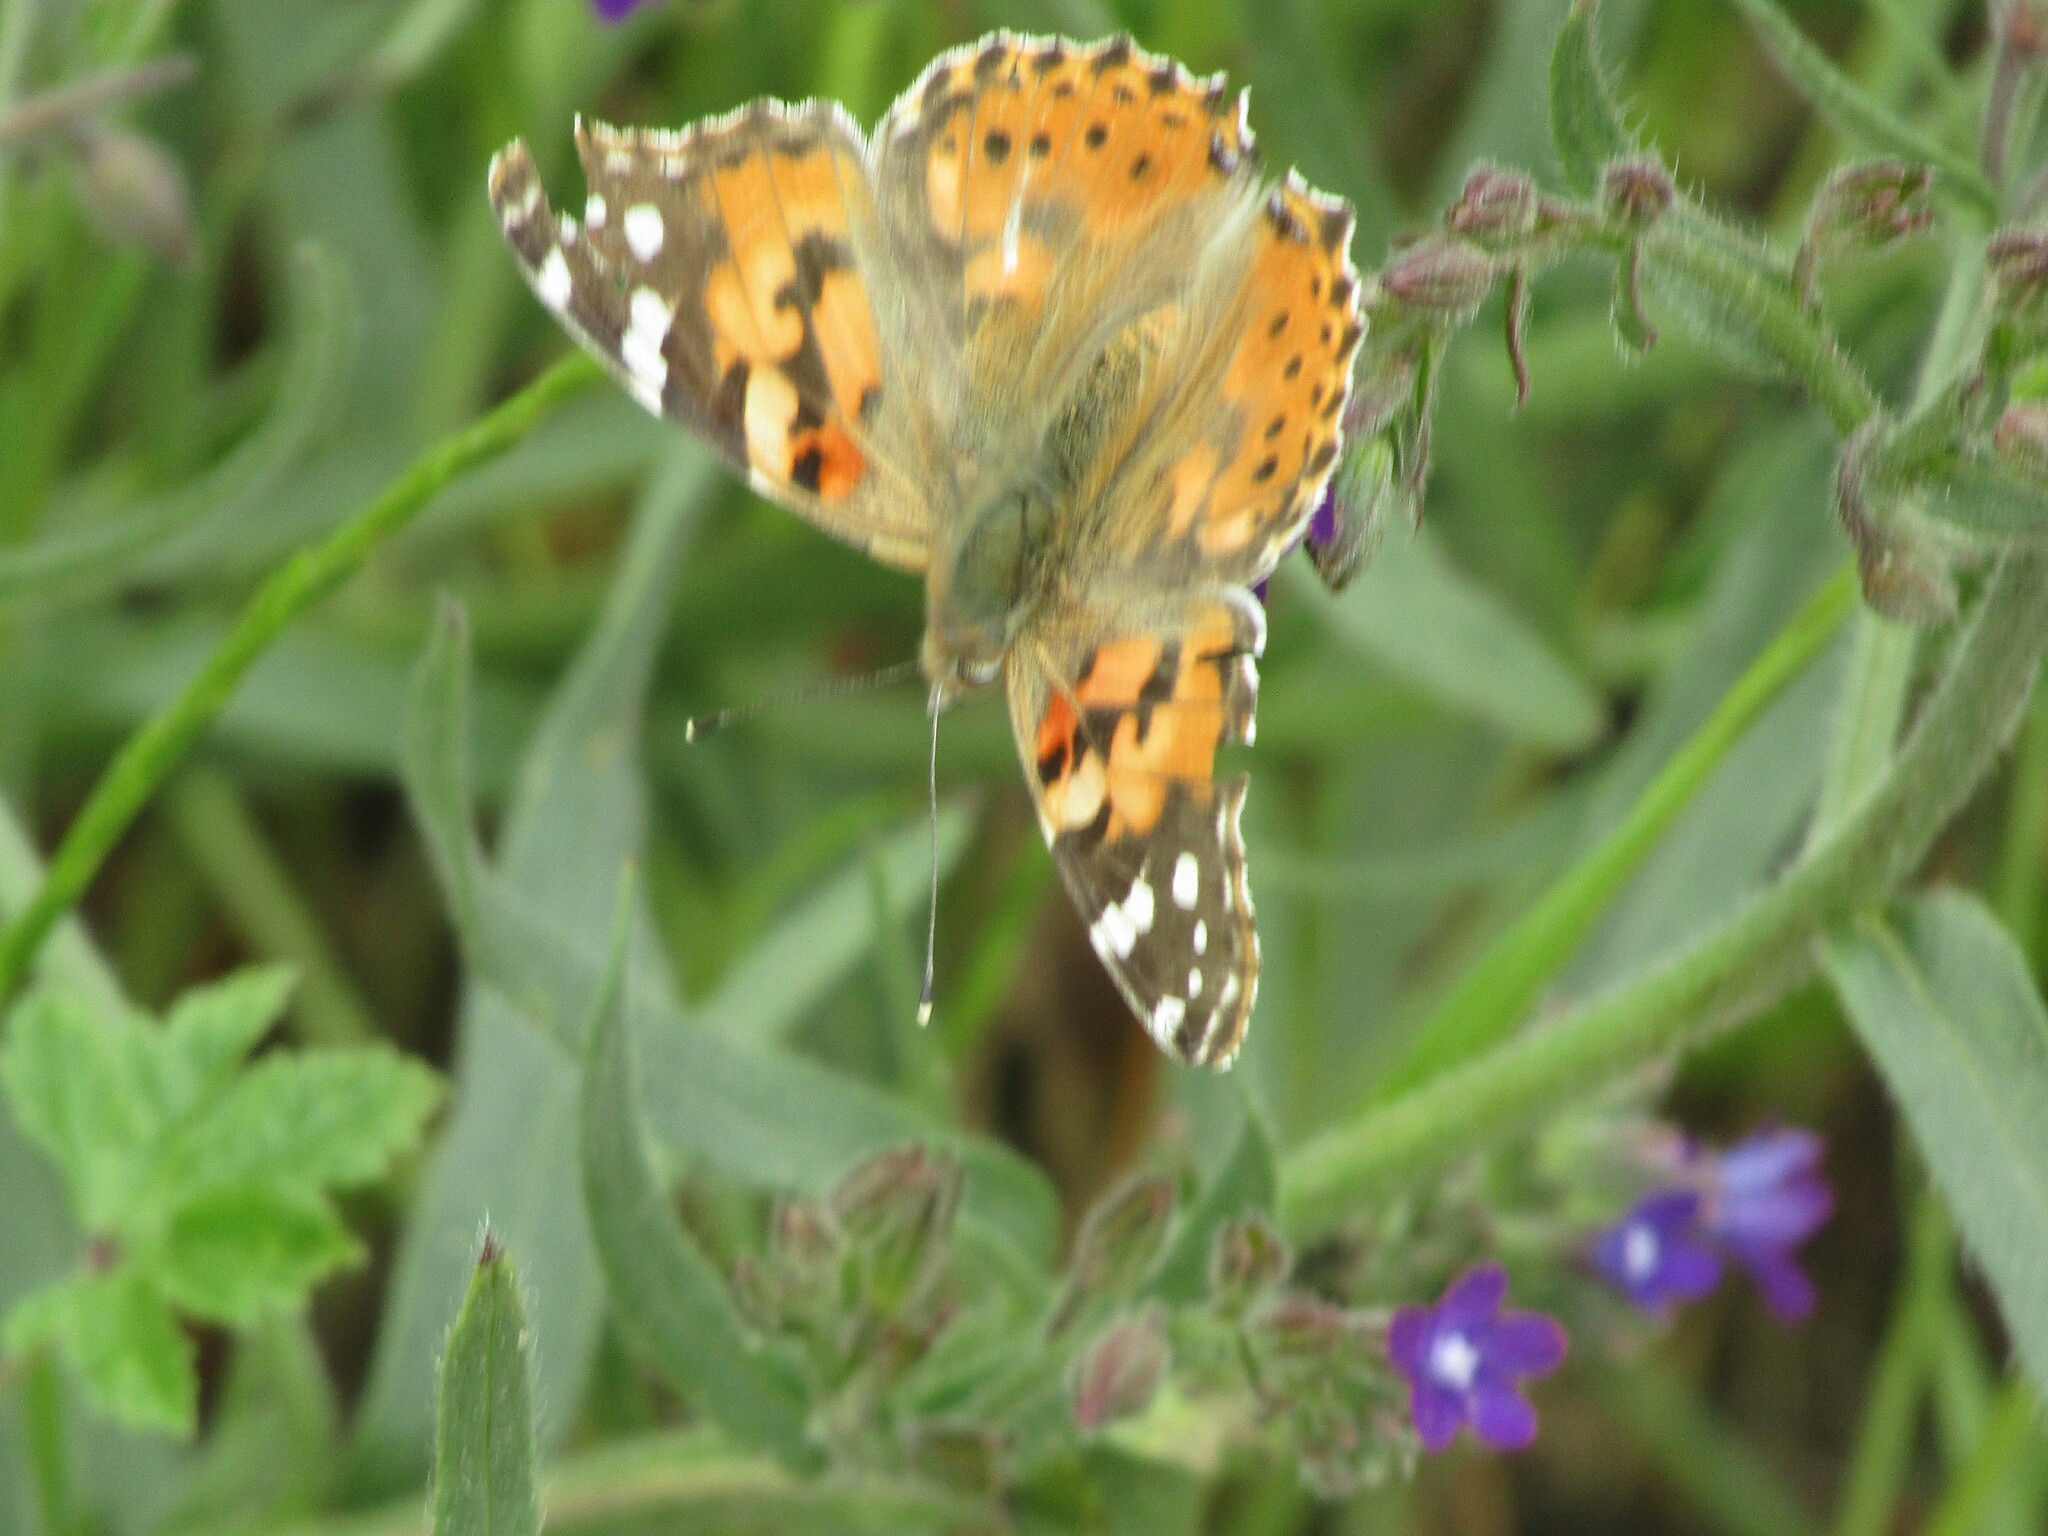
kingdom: Animalia
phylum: Arthropoda
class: Insecta
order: Lepidoptera
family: Nymphalidae
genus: Vanessa
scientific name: Vanessa cardui
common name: Painted lady
